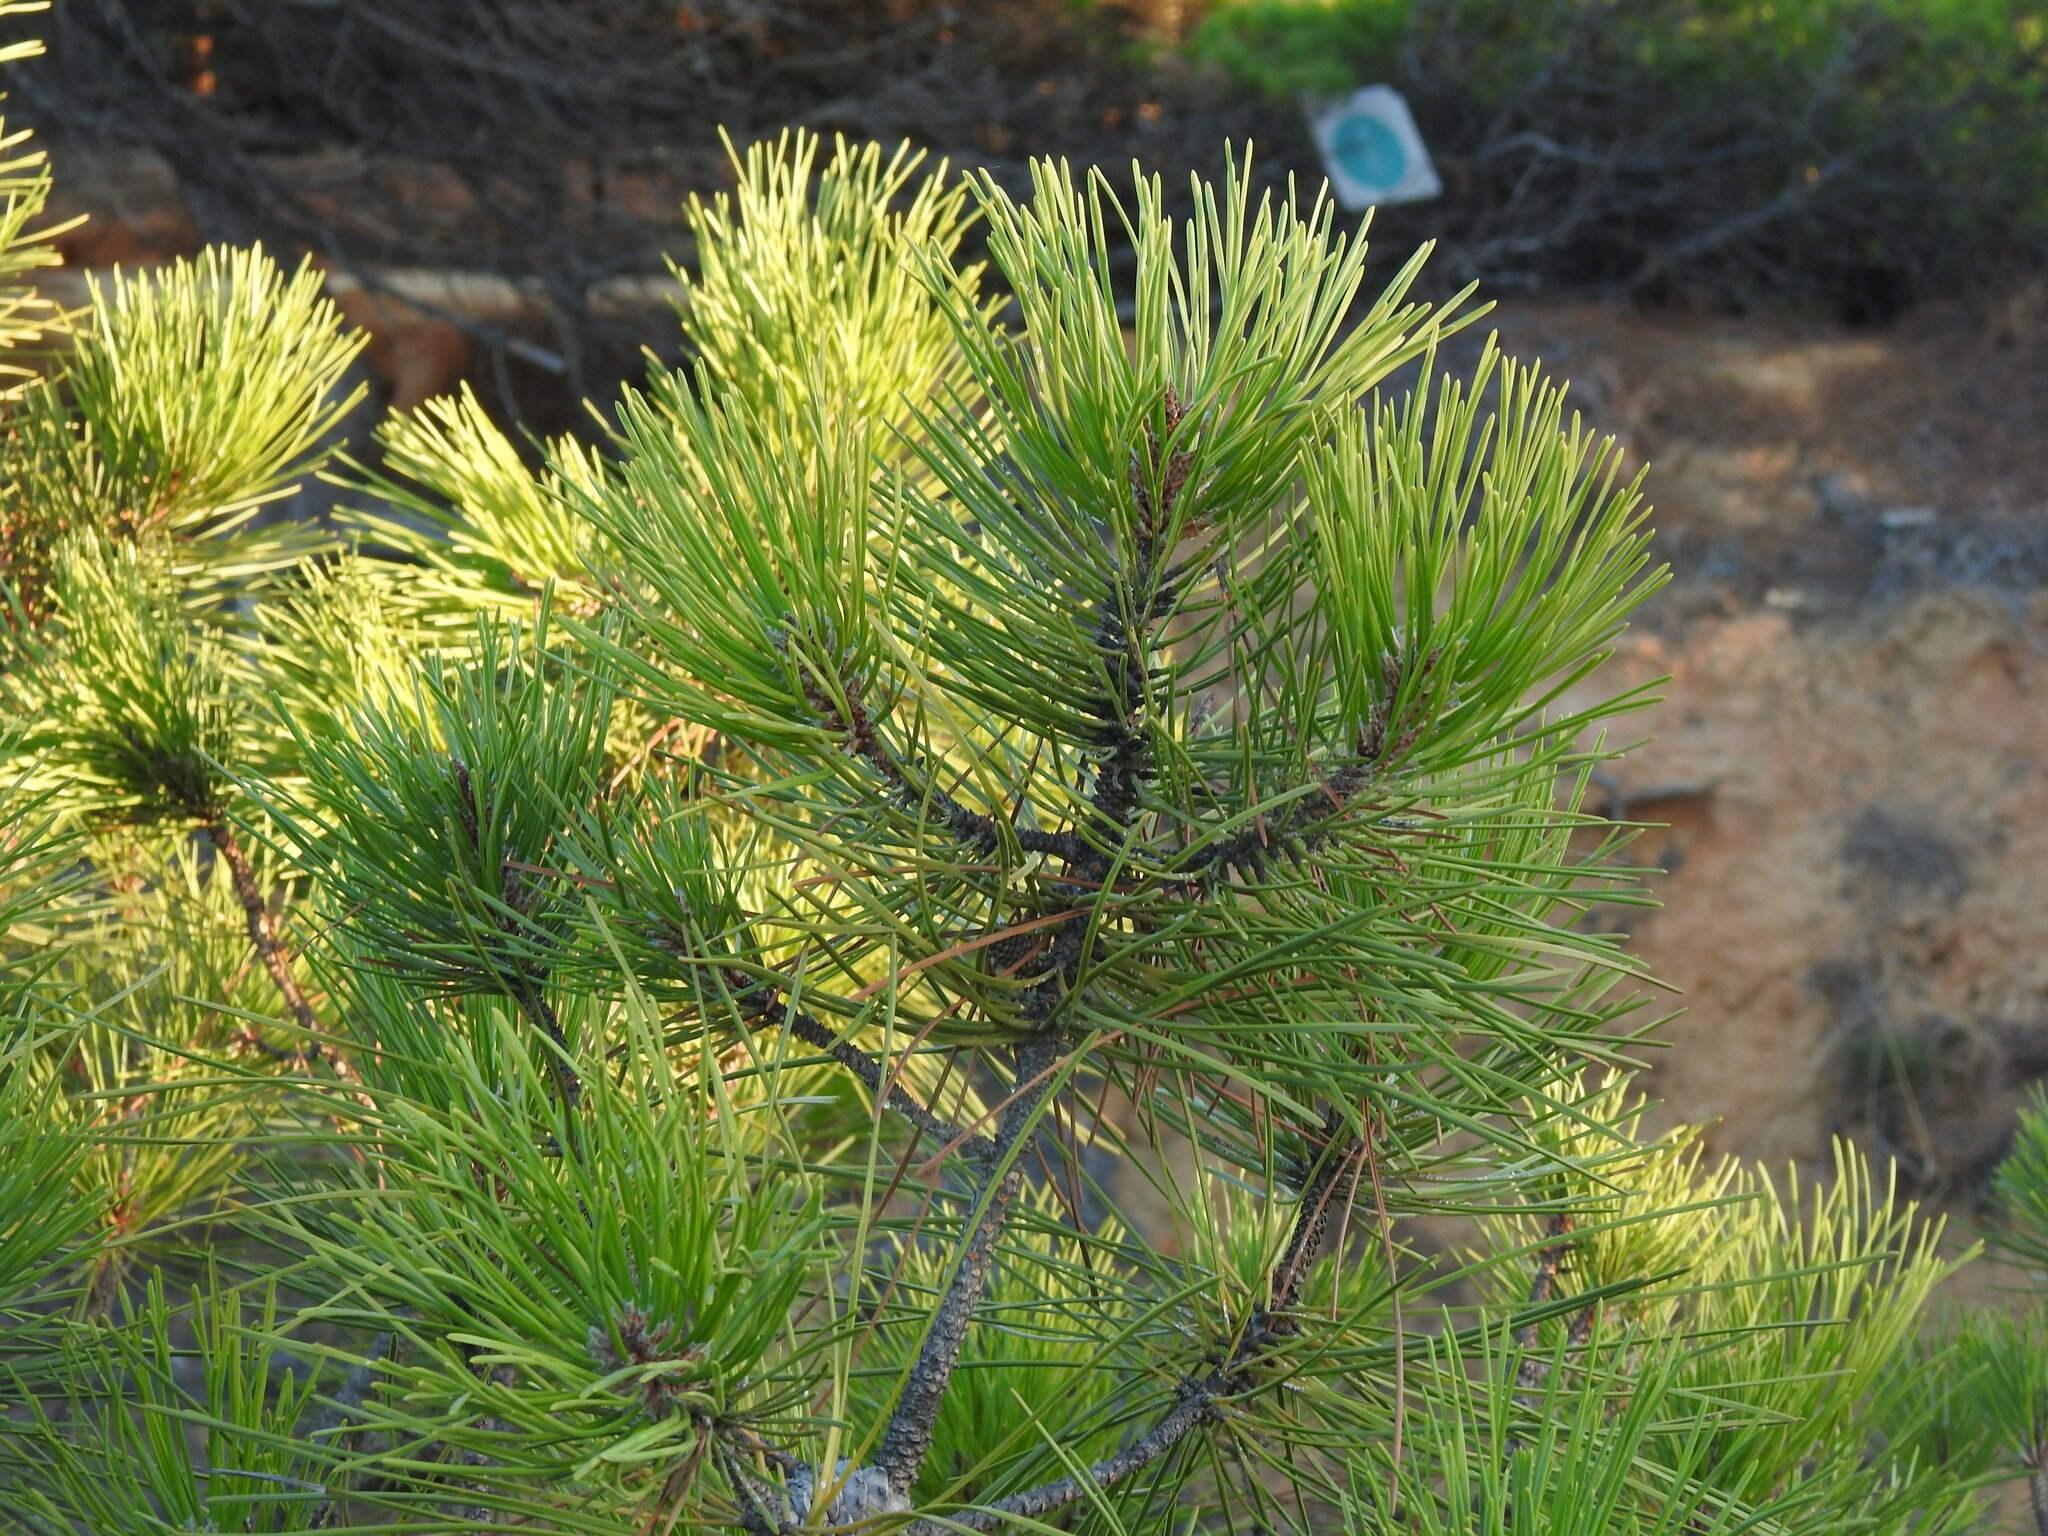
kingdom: Plantae
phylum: Tracheophyta
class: Pinopsida
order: Pinales
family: Pinaceae
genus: Pinus
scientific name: Pinus pinaster
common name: Maritime pine
